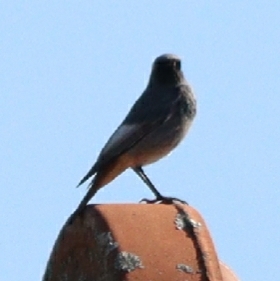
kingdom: Animalia
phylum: Chordata
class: Aves
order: Passeriformes
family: Muscicapidae
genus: Phoenicurus
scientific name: Phoenicurus ochruros
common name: Black redstart
